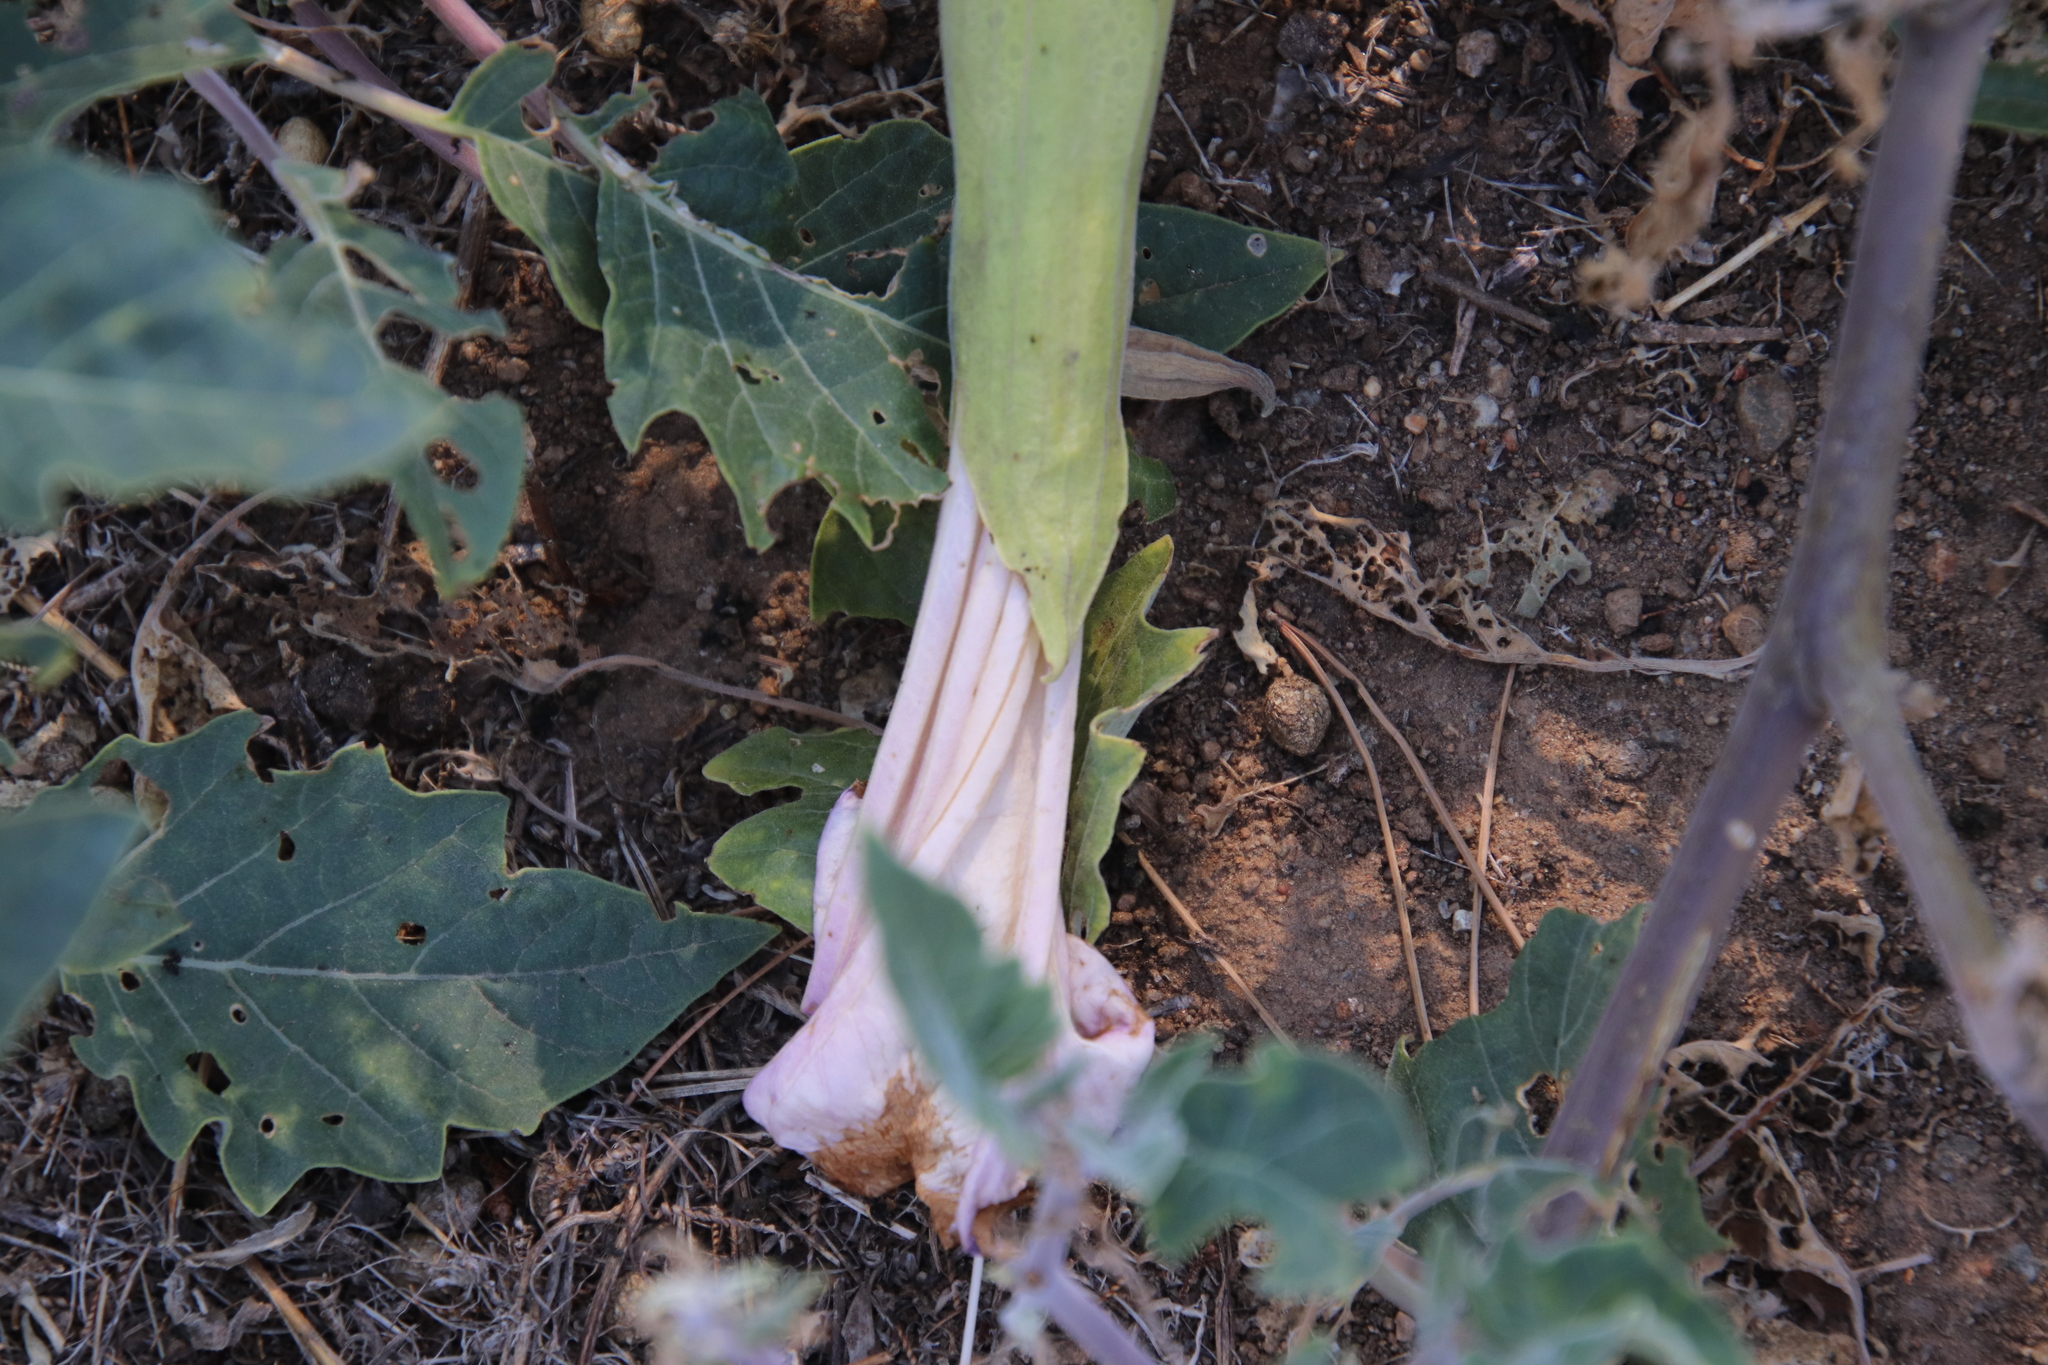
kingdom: Plantae
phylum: Tracheophyta
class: Magnoliopsida
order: Solanales
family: Solanaceae
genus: Datura
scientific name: Datura wrightii
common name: Sacred thorn-apple
